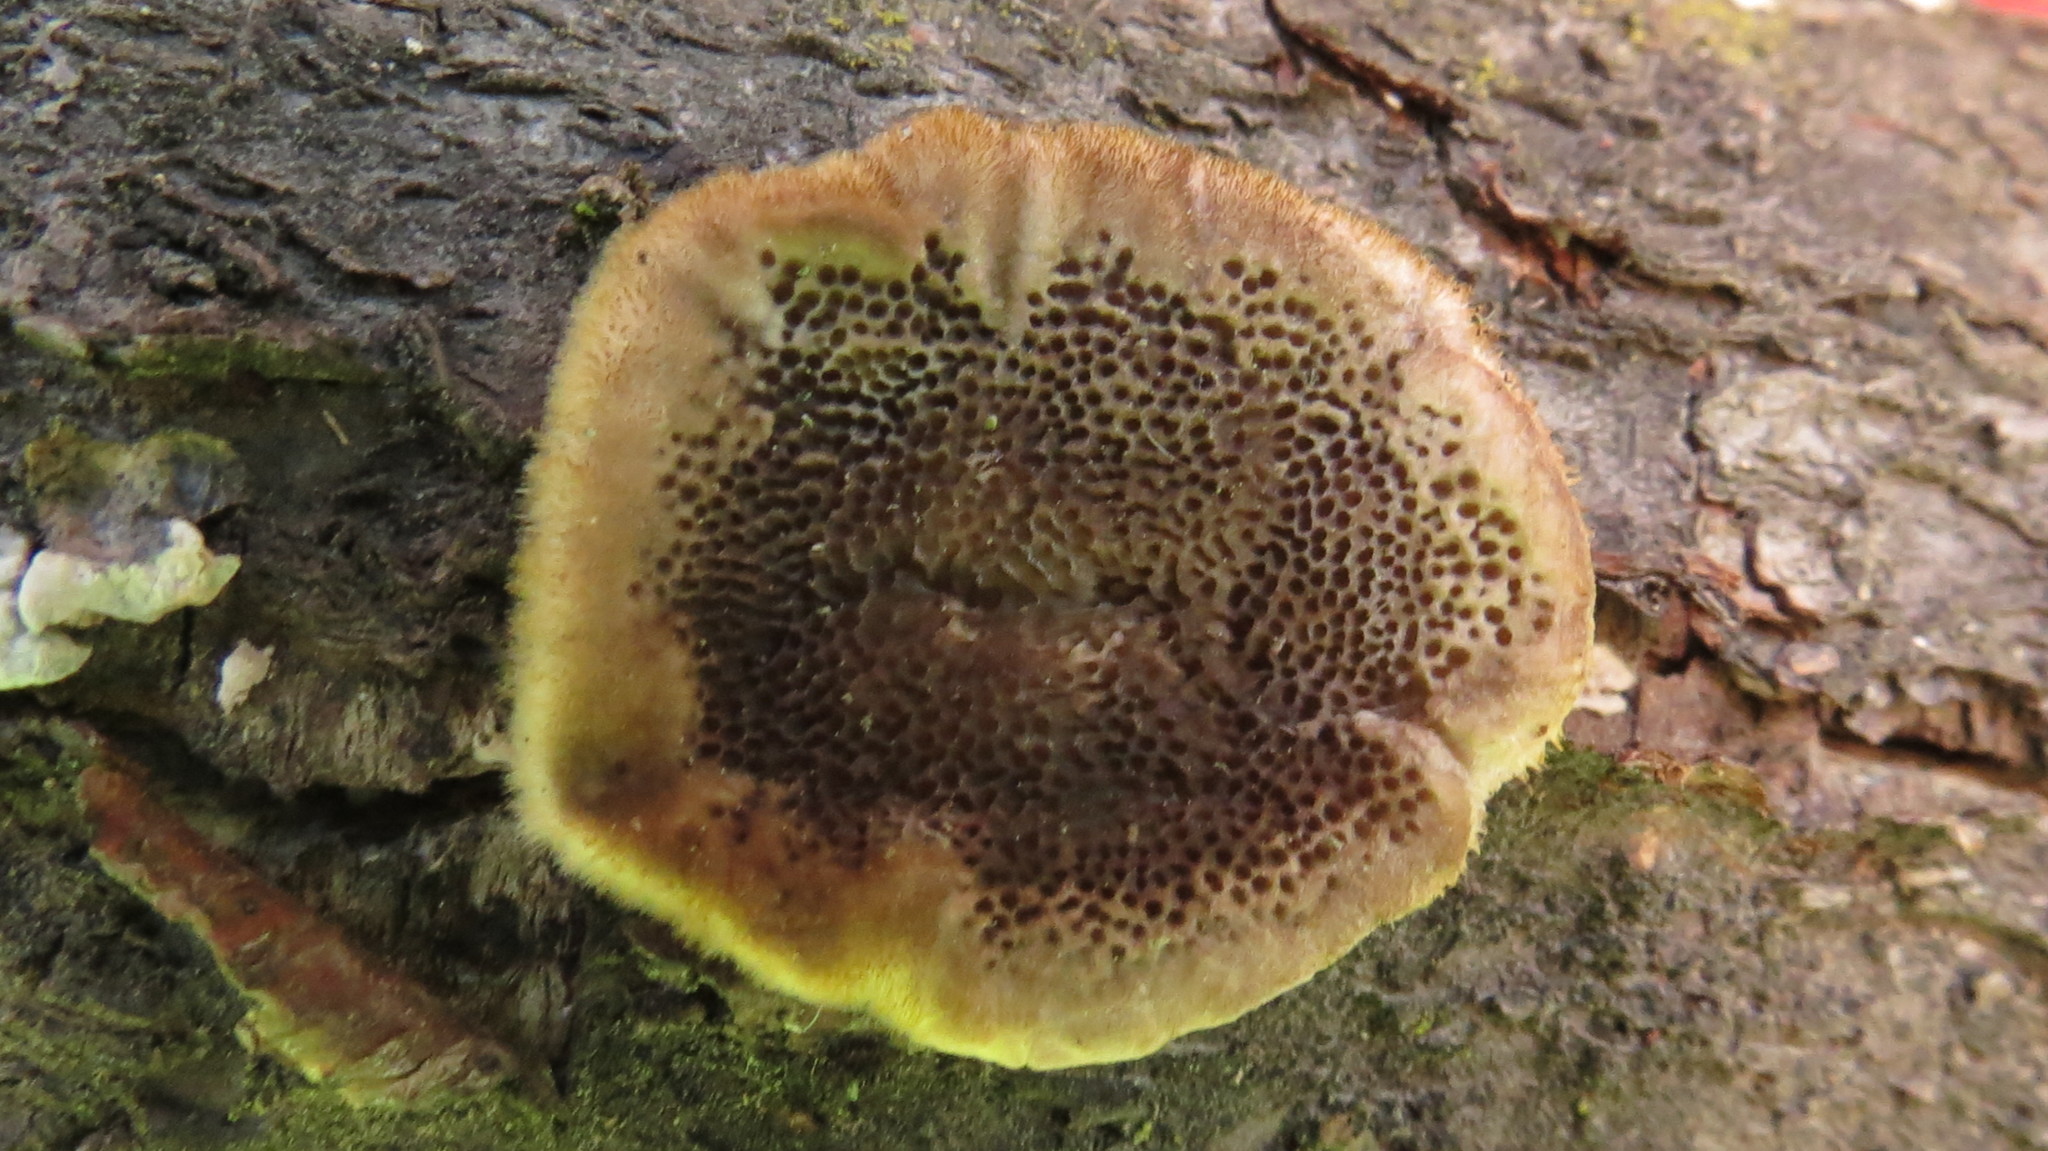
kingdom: Fungi
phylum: Basidiomycota
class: Agaricomycetes
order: Polyporales
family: Polyporaceae
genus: Trametes
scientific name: Trametes hirsuta
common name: Hairy bracket
